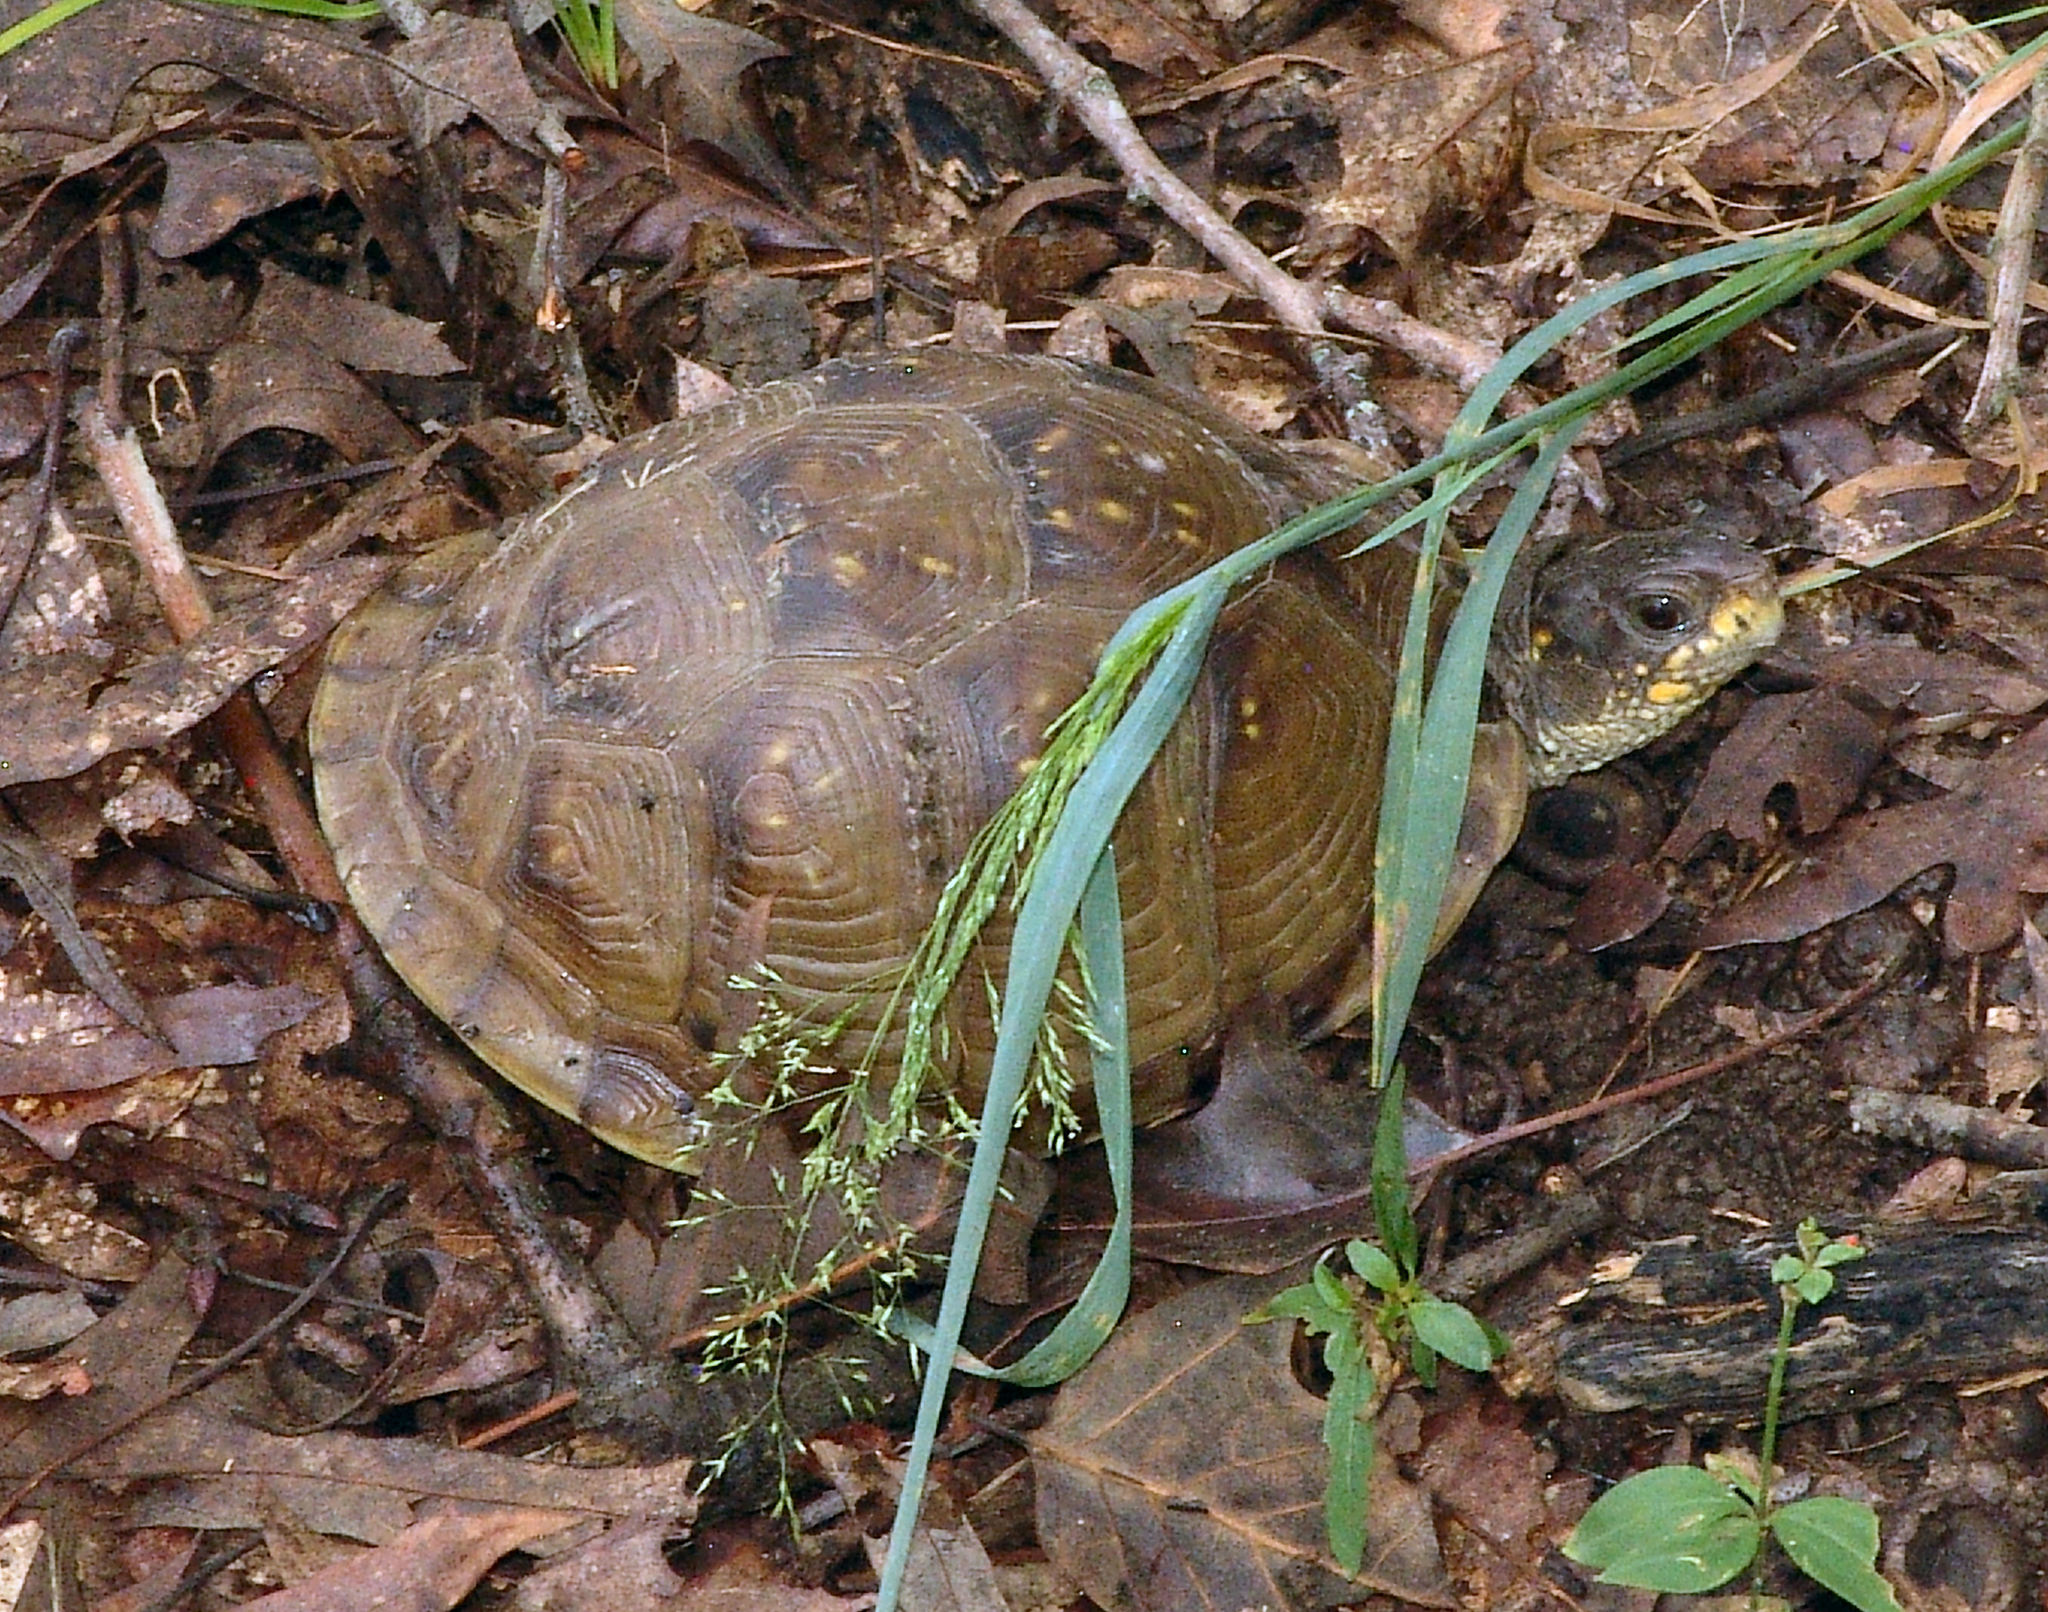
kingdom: Animalia
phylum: Chordata
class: Testudines
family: Emydidae
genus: Terrapene
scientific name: Terrapene carolina
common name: Common box turtle
